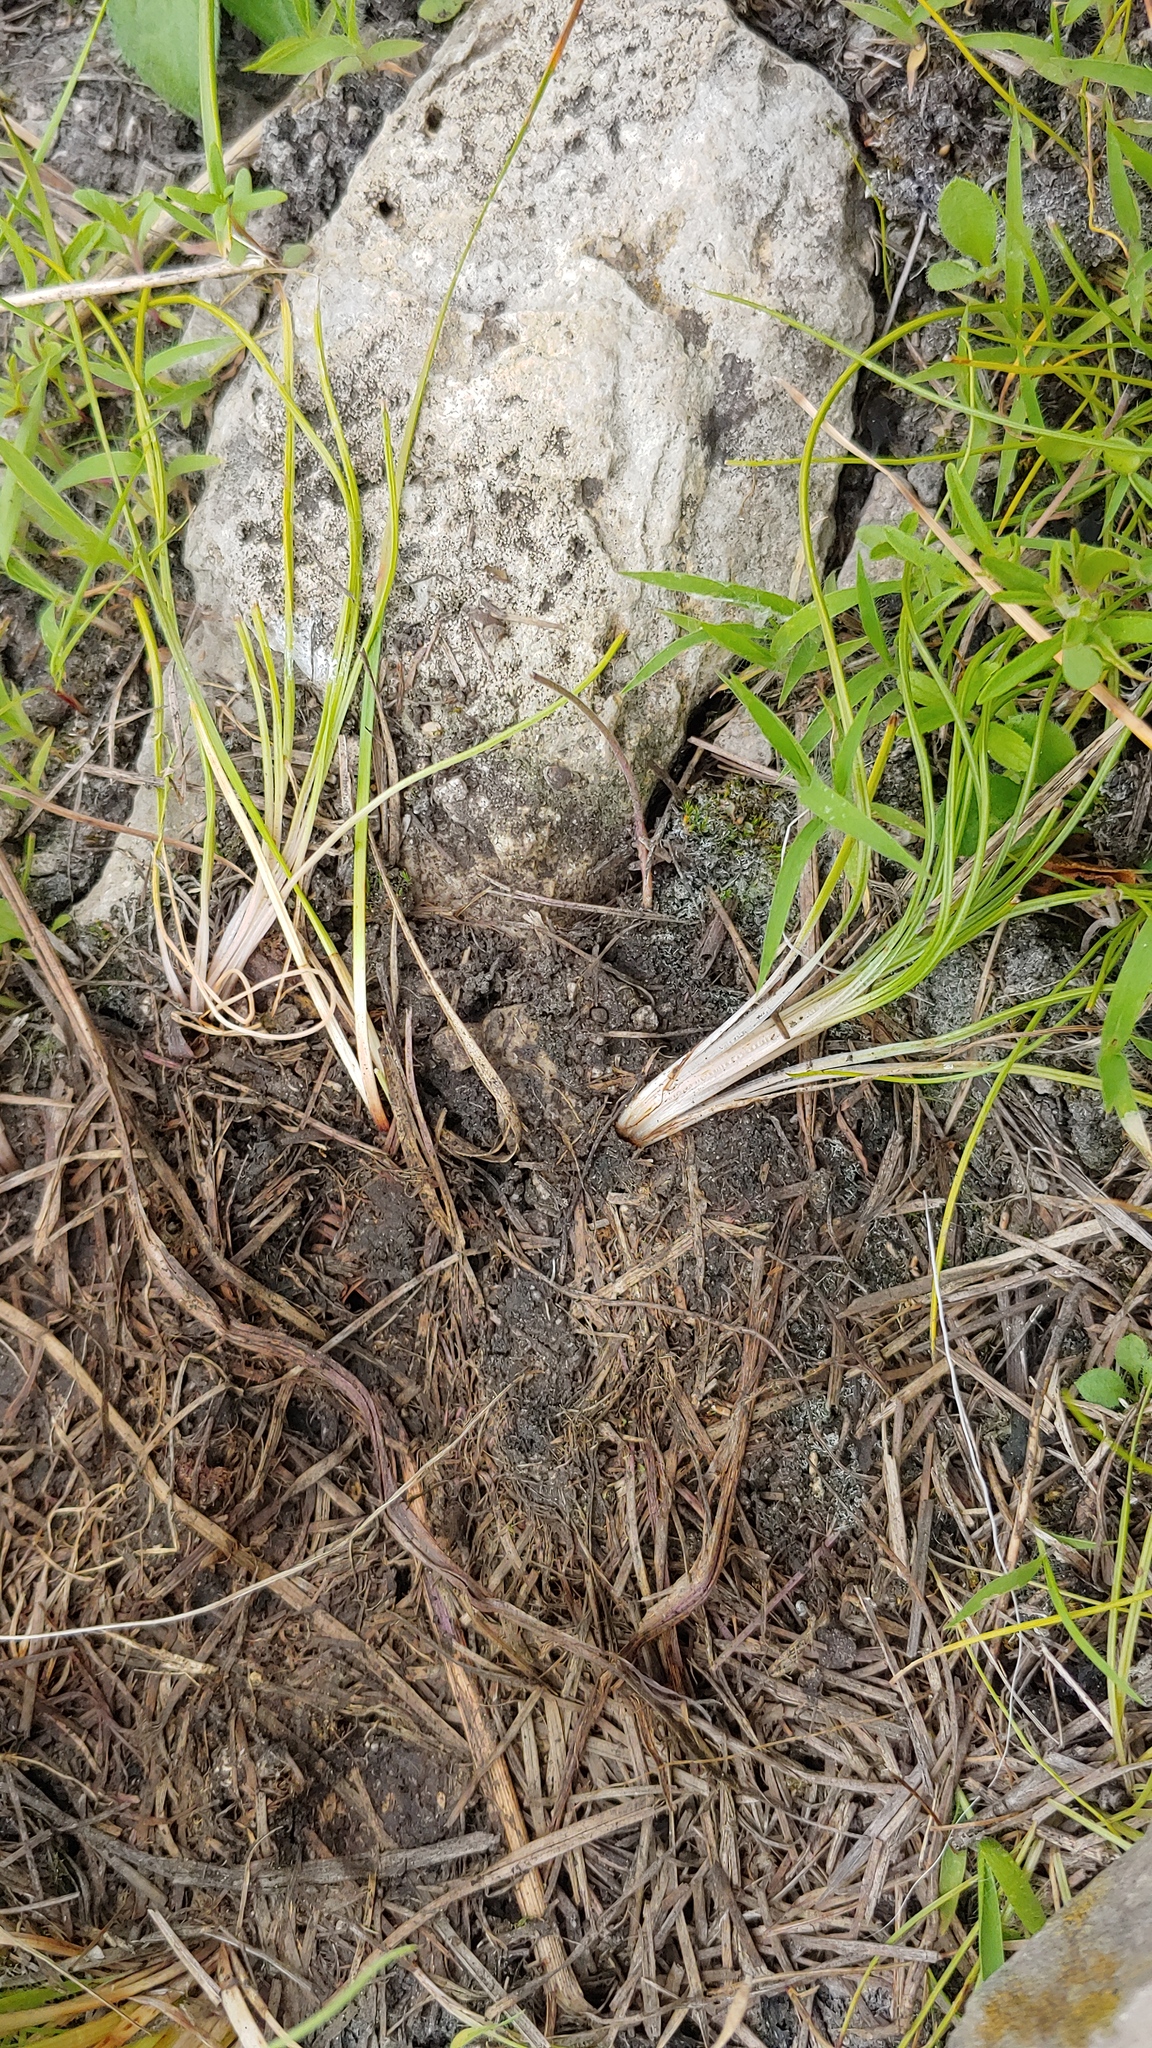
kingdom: Plantae
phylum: Tracheophyta
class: Lycopodiopsida
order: Isoetales
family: Isoetaceae
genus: Isoetes
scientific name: Isoetes butleri
